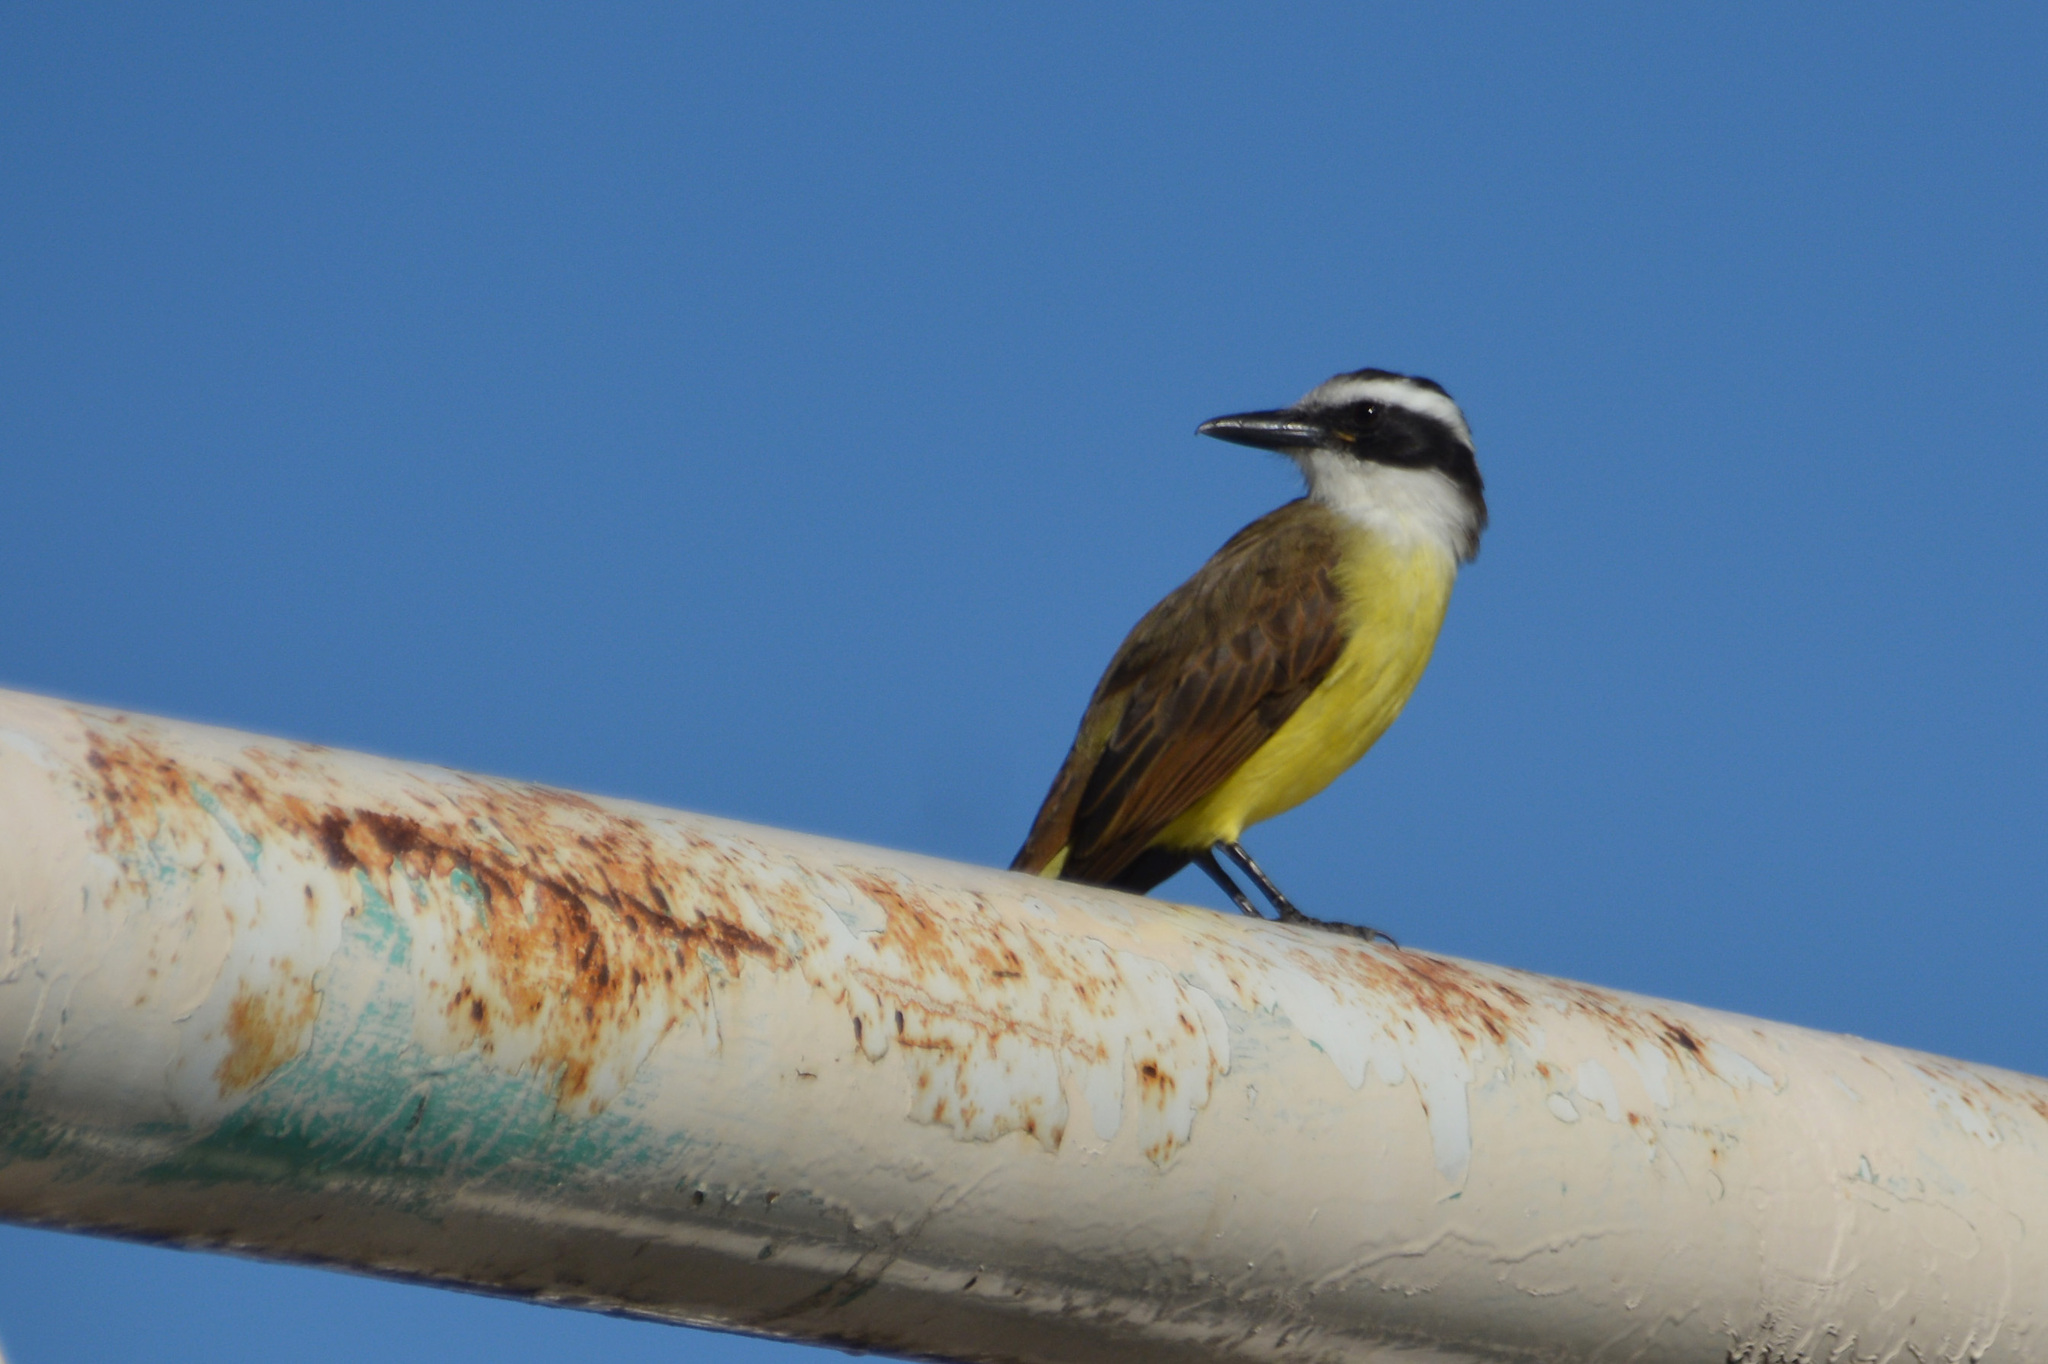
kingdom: Animalia
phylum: Chordata
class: Aves
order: Passeriformes
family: Tyrannidae
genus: Pitangus
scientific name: Pitangus sulphuratus
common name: Great kiskadee
